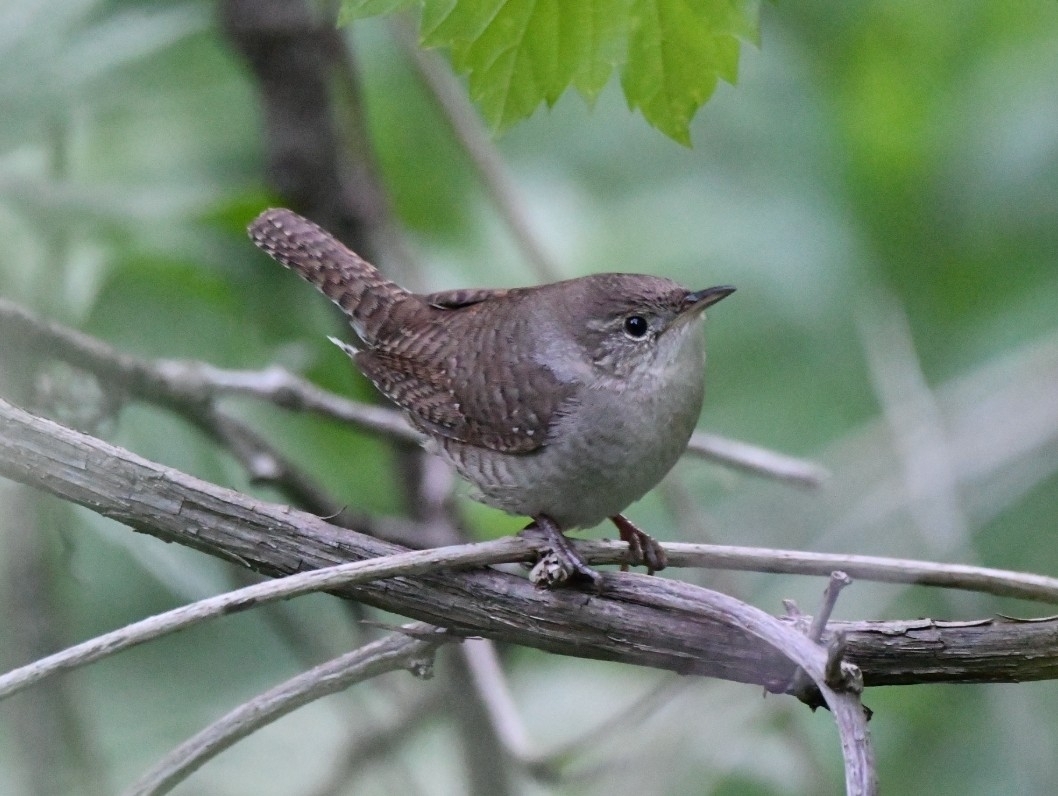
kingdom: Animalia
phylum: Chordata
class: Aves
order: Passeriformes
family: Troglodytidae
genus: Troglodytes
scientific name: Troglodytes aedon
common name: House wren
